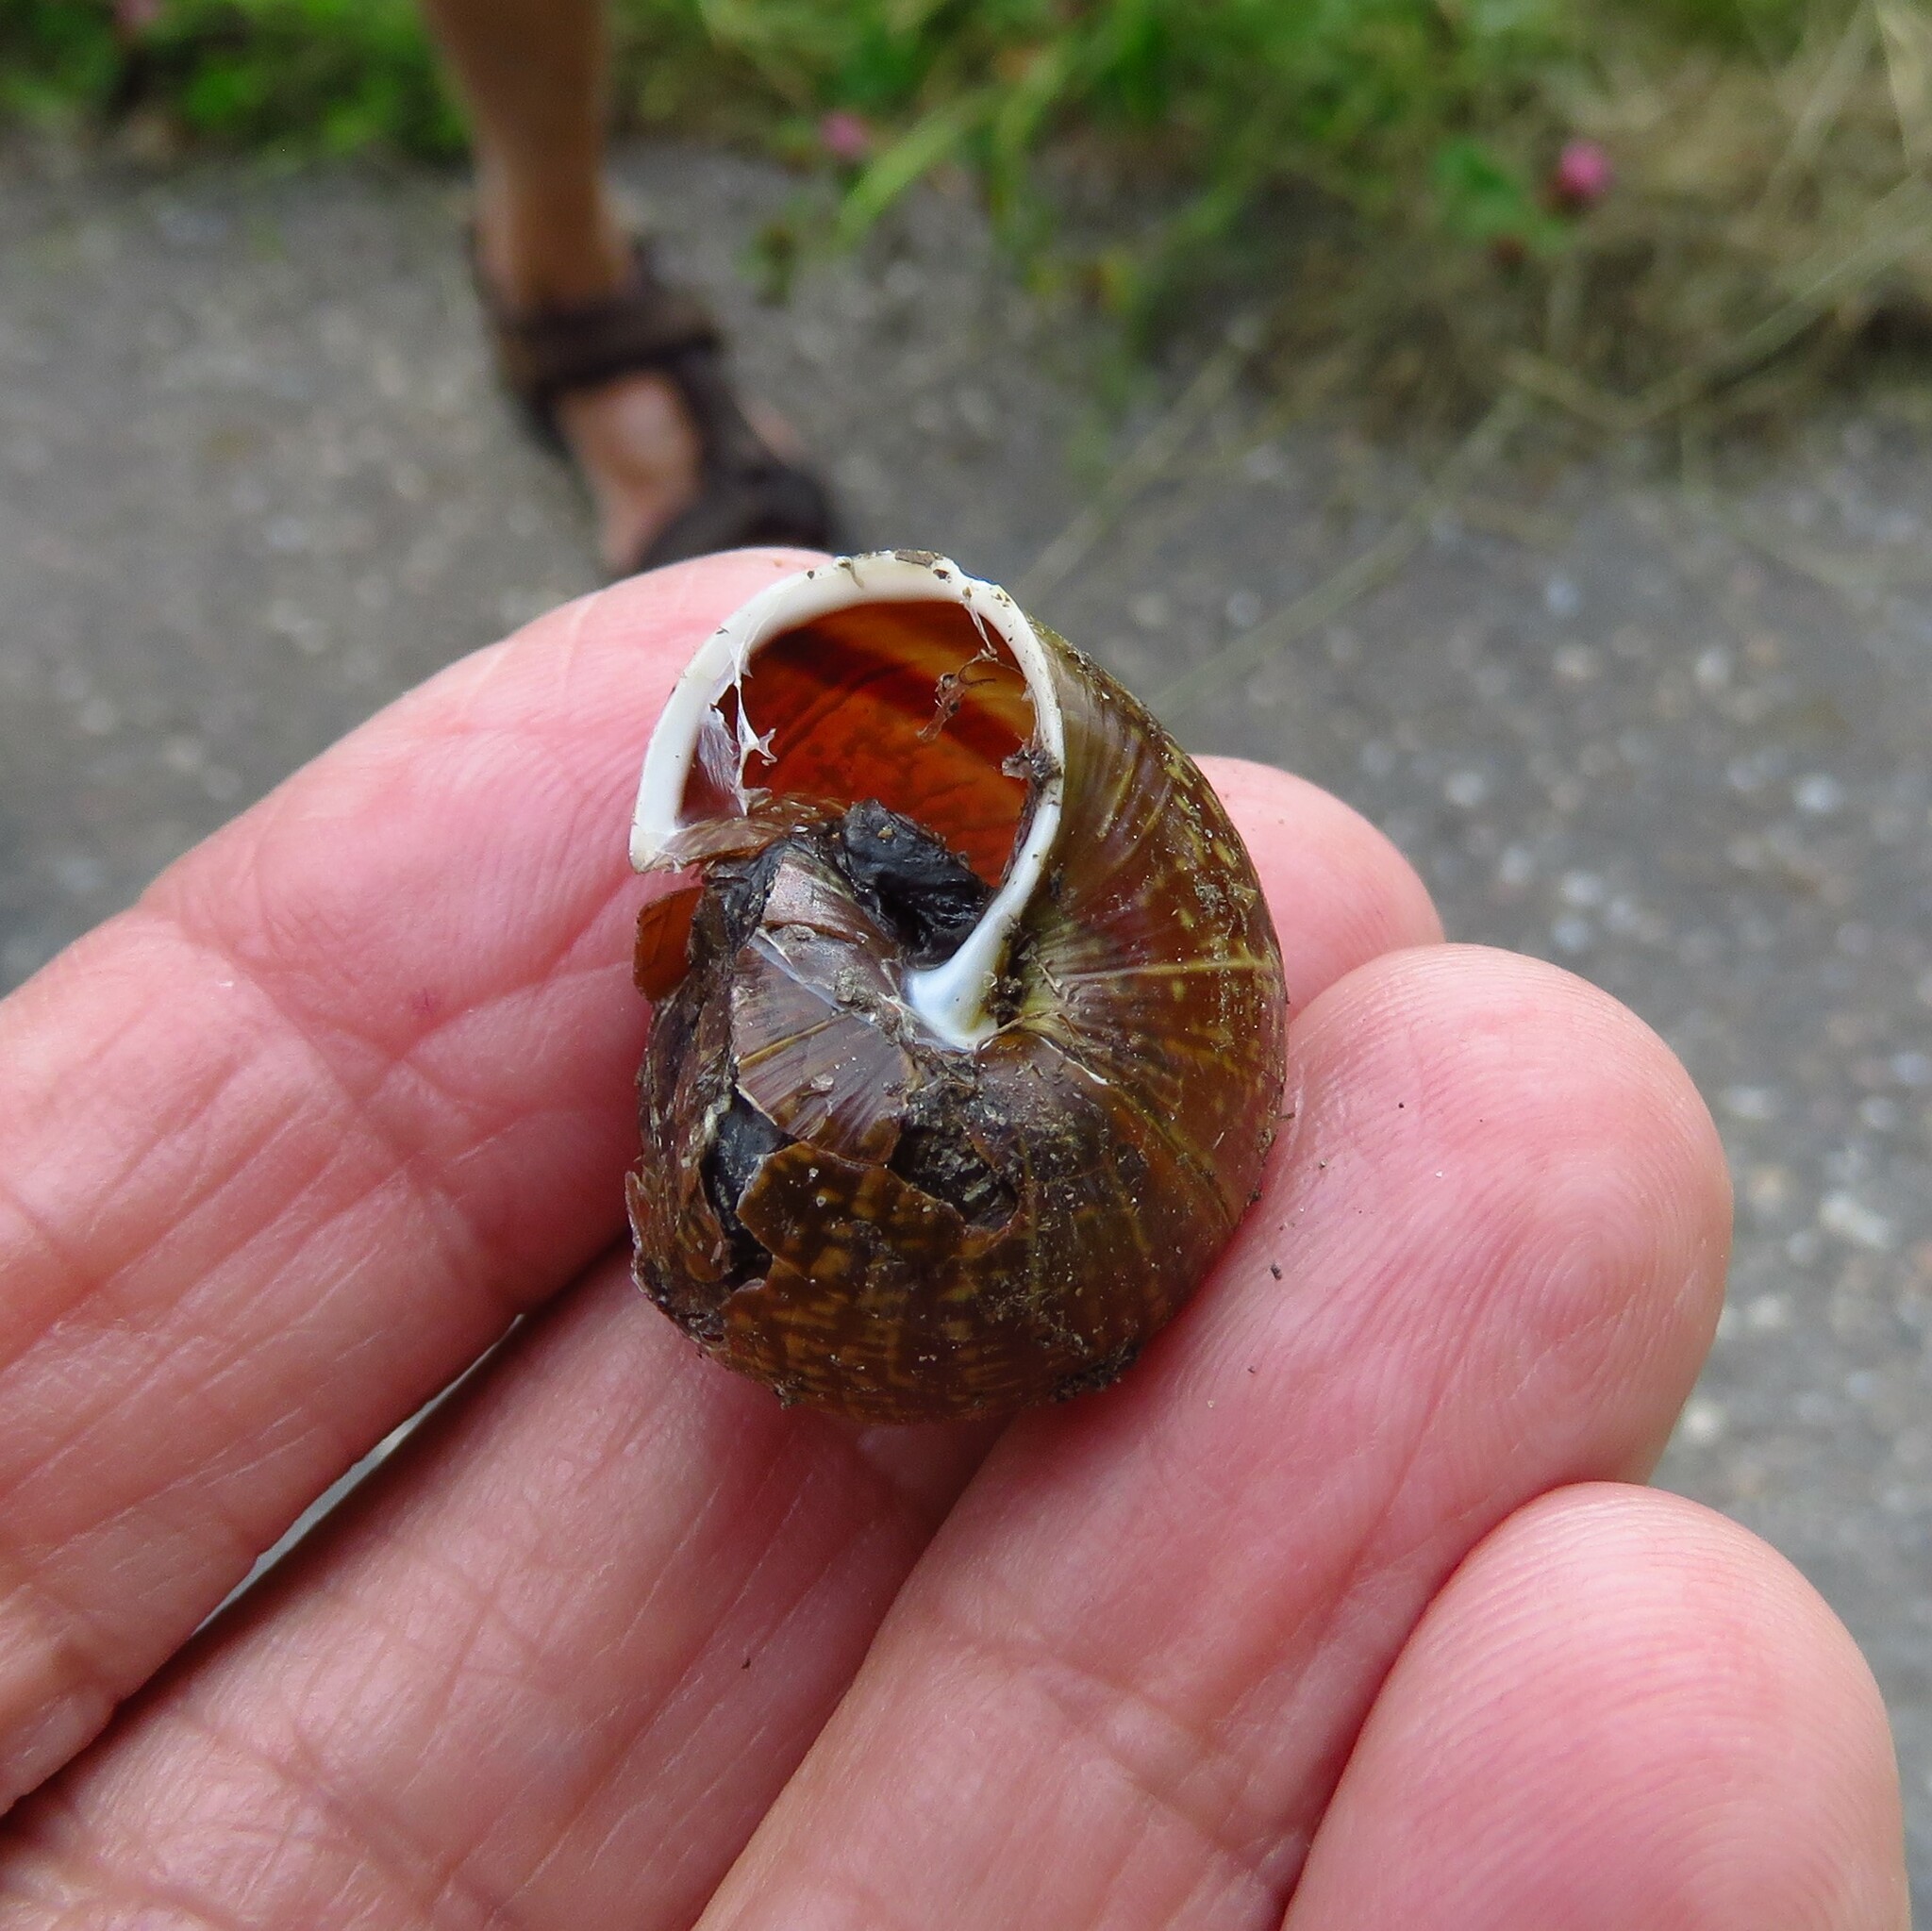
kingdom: Animalia
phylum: Mollusca
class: Gastropoda
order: Stylommatophora
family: Helicidae
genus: Arianta
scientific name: Arianta arbustorum
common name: Copse snail
